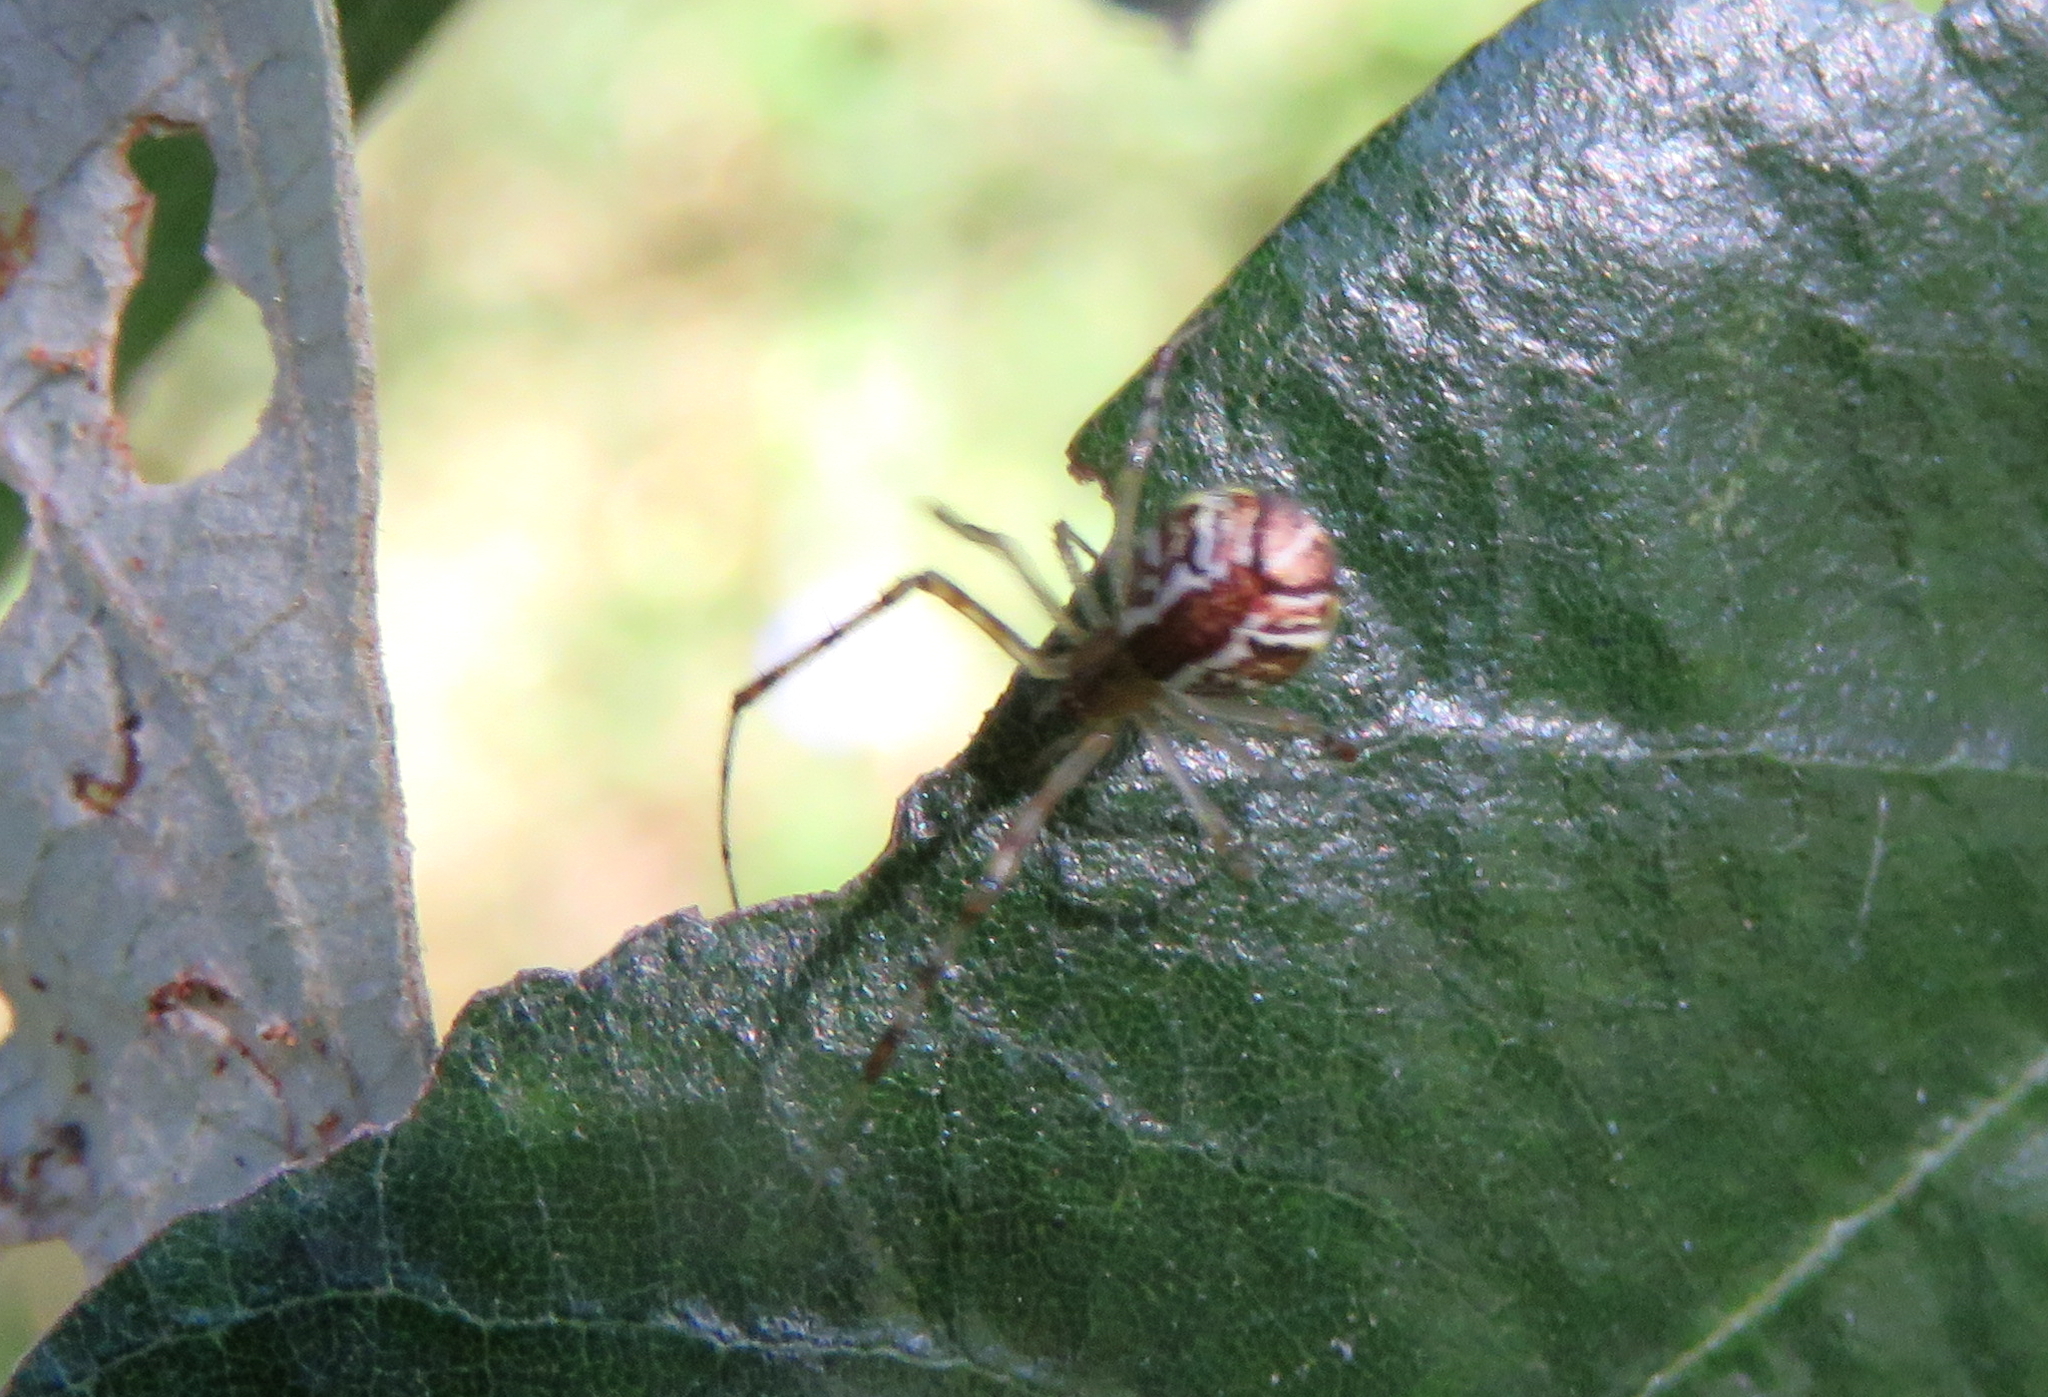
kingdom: Animalia
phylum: Arthropoda
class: Arachnida
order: Araneae
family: Theridiidae
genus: Theridion
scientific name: Theridion pyramidale
